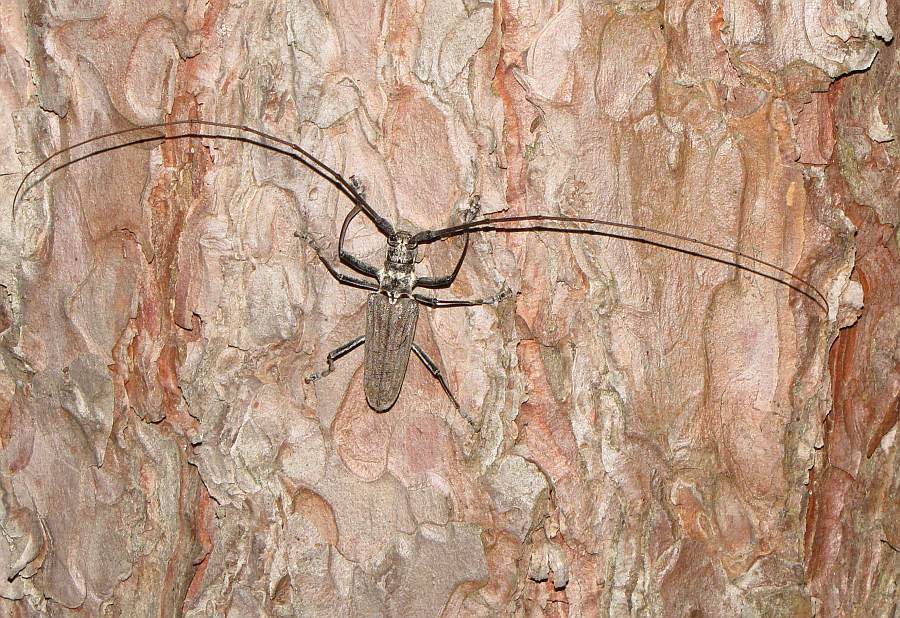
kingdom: Animalia
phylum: Arthropoda
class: Insecta
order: Coleoptera
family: Cerambycidae
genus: Monochamus
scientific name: Monochamus notatus
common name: Northeastern pine sawyer beetle
